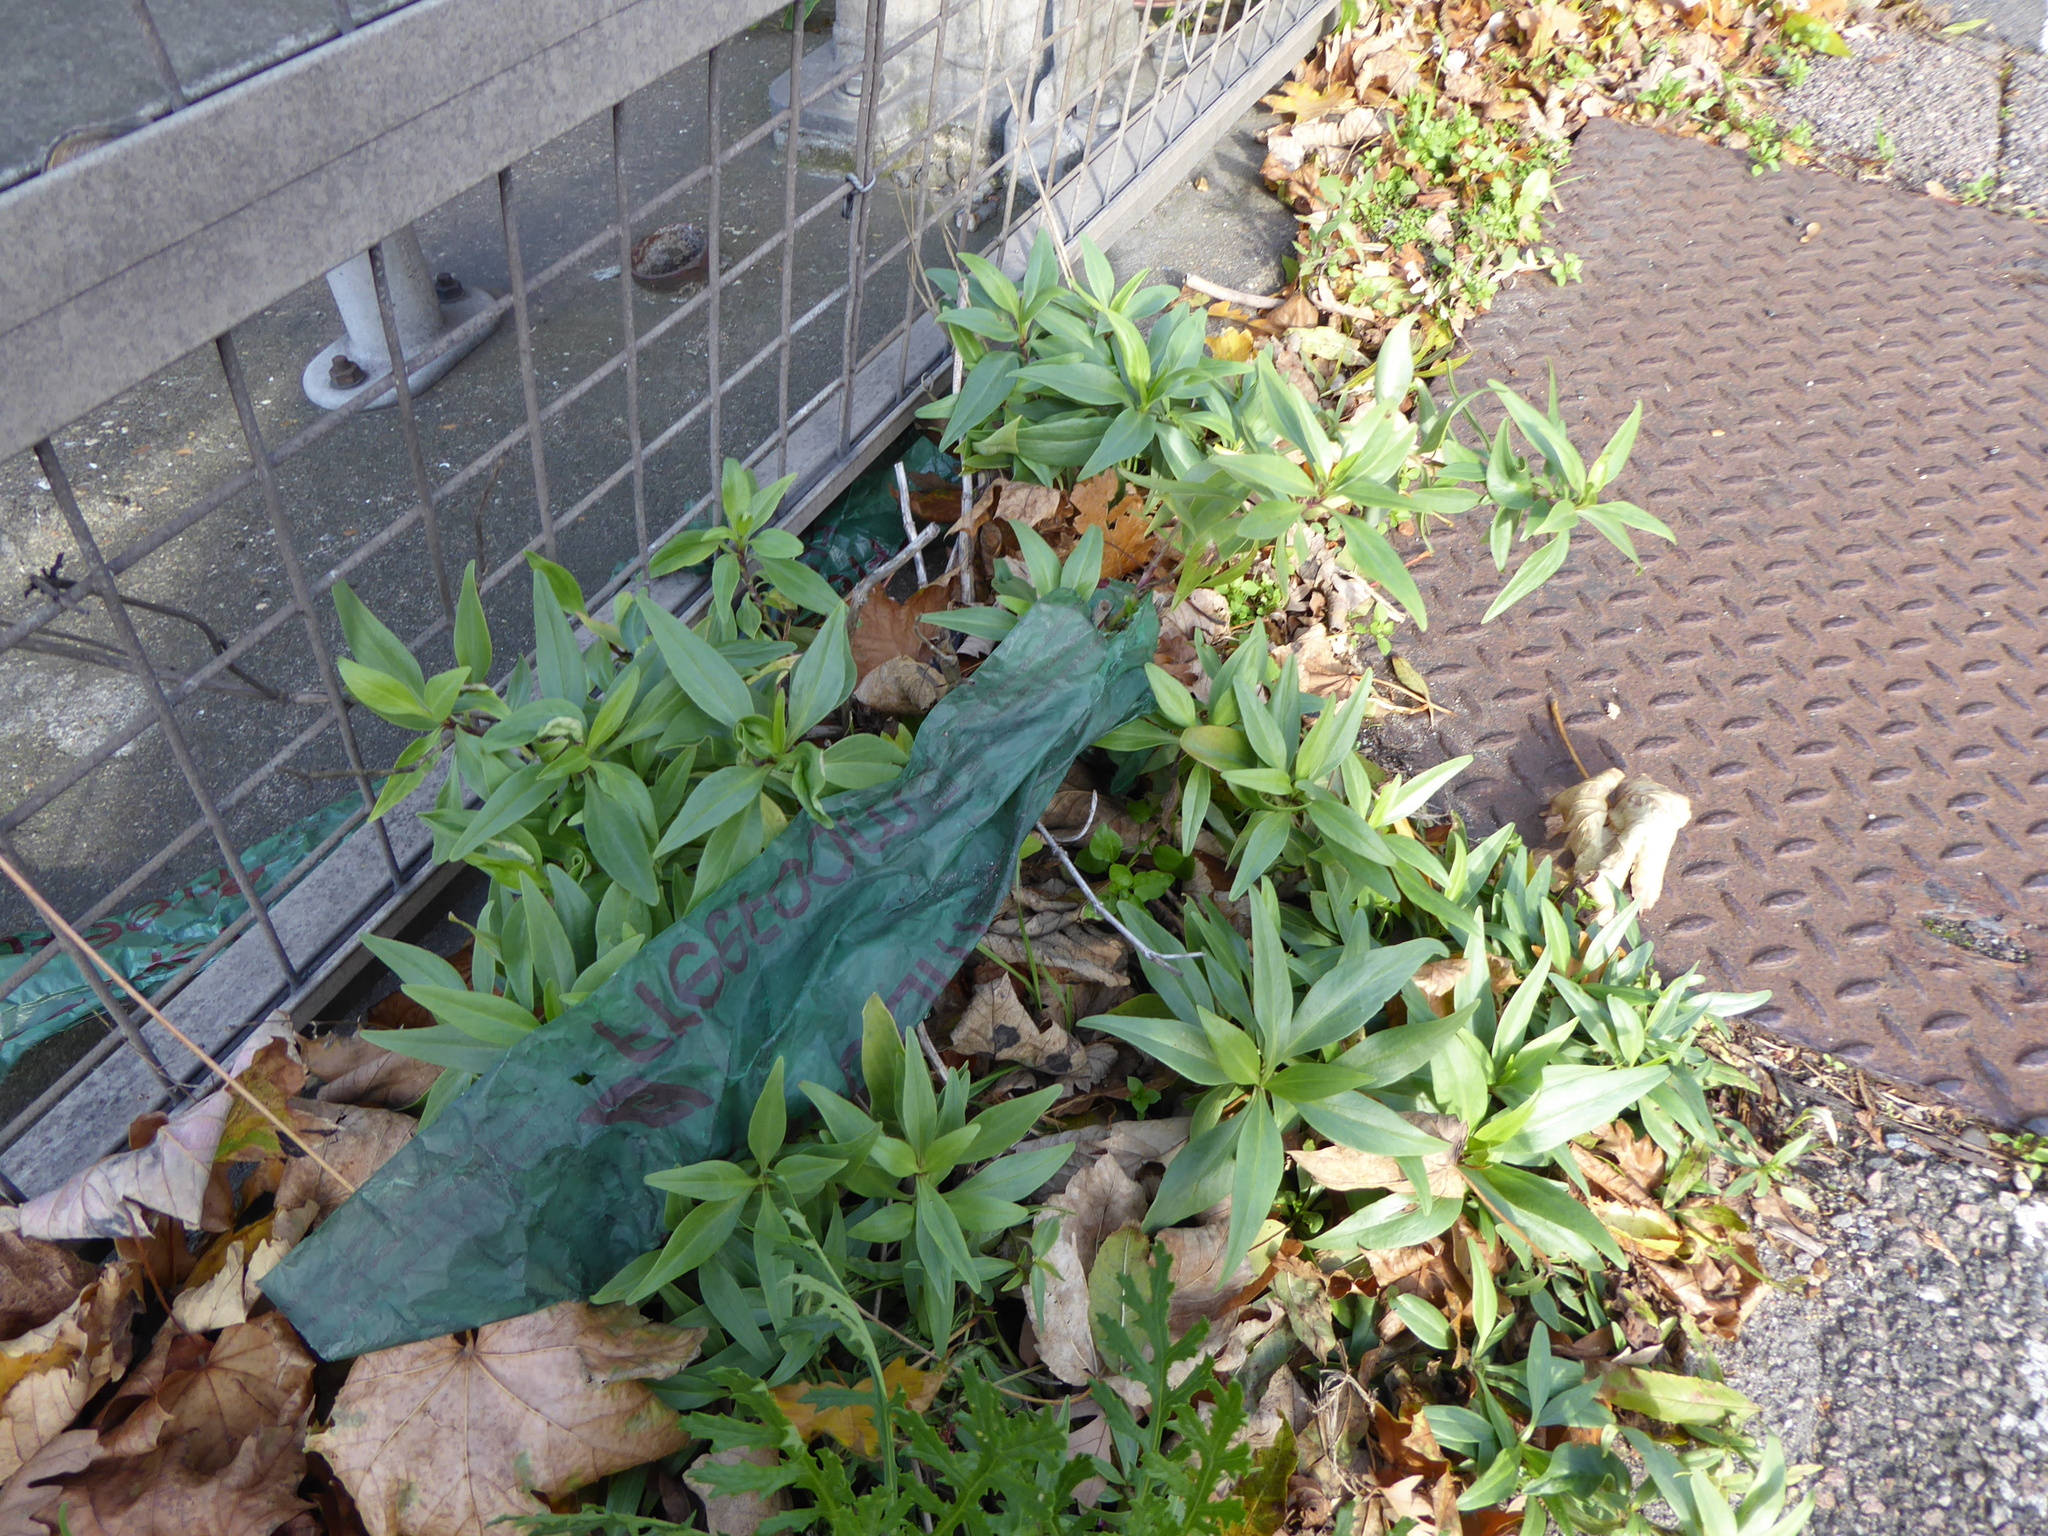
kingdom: Plantae
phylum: Tracheophyta
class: Magnoliopsida
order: Dipsacales
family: Caprifoliaceae
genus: Centranthus
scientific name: Centranthus ruber
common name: Red valerian
